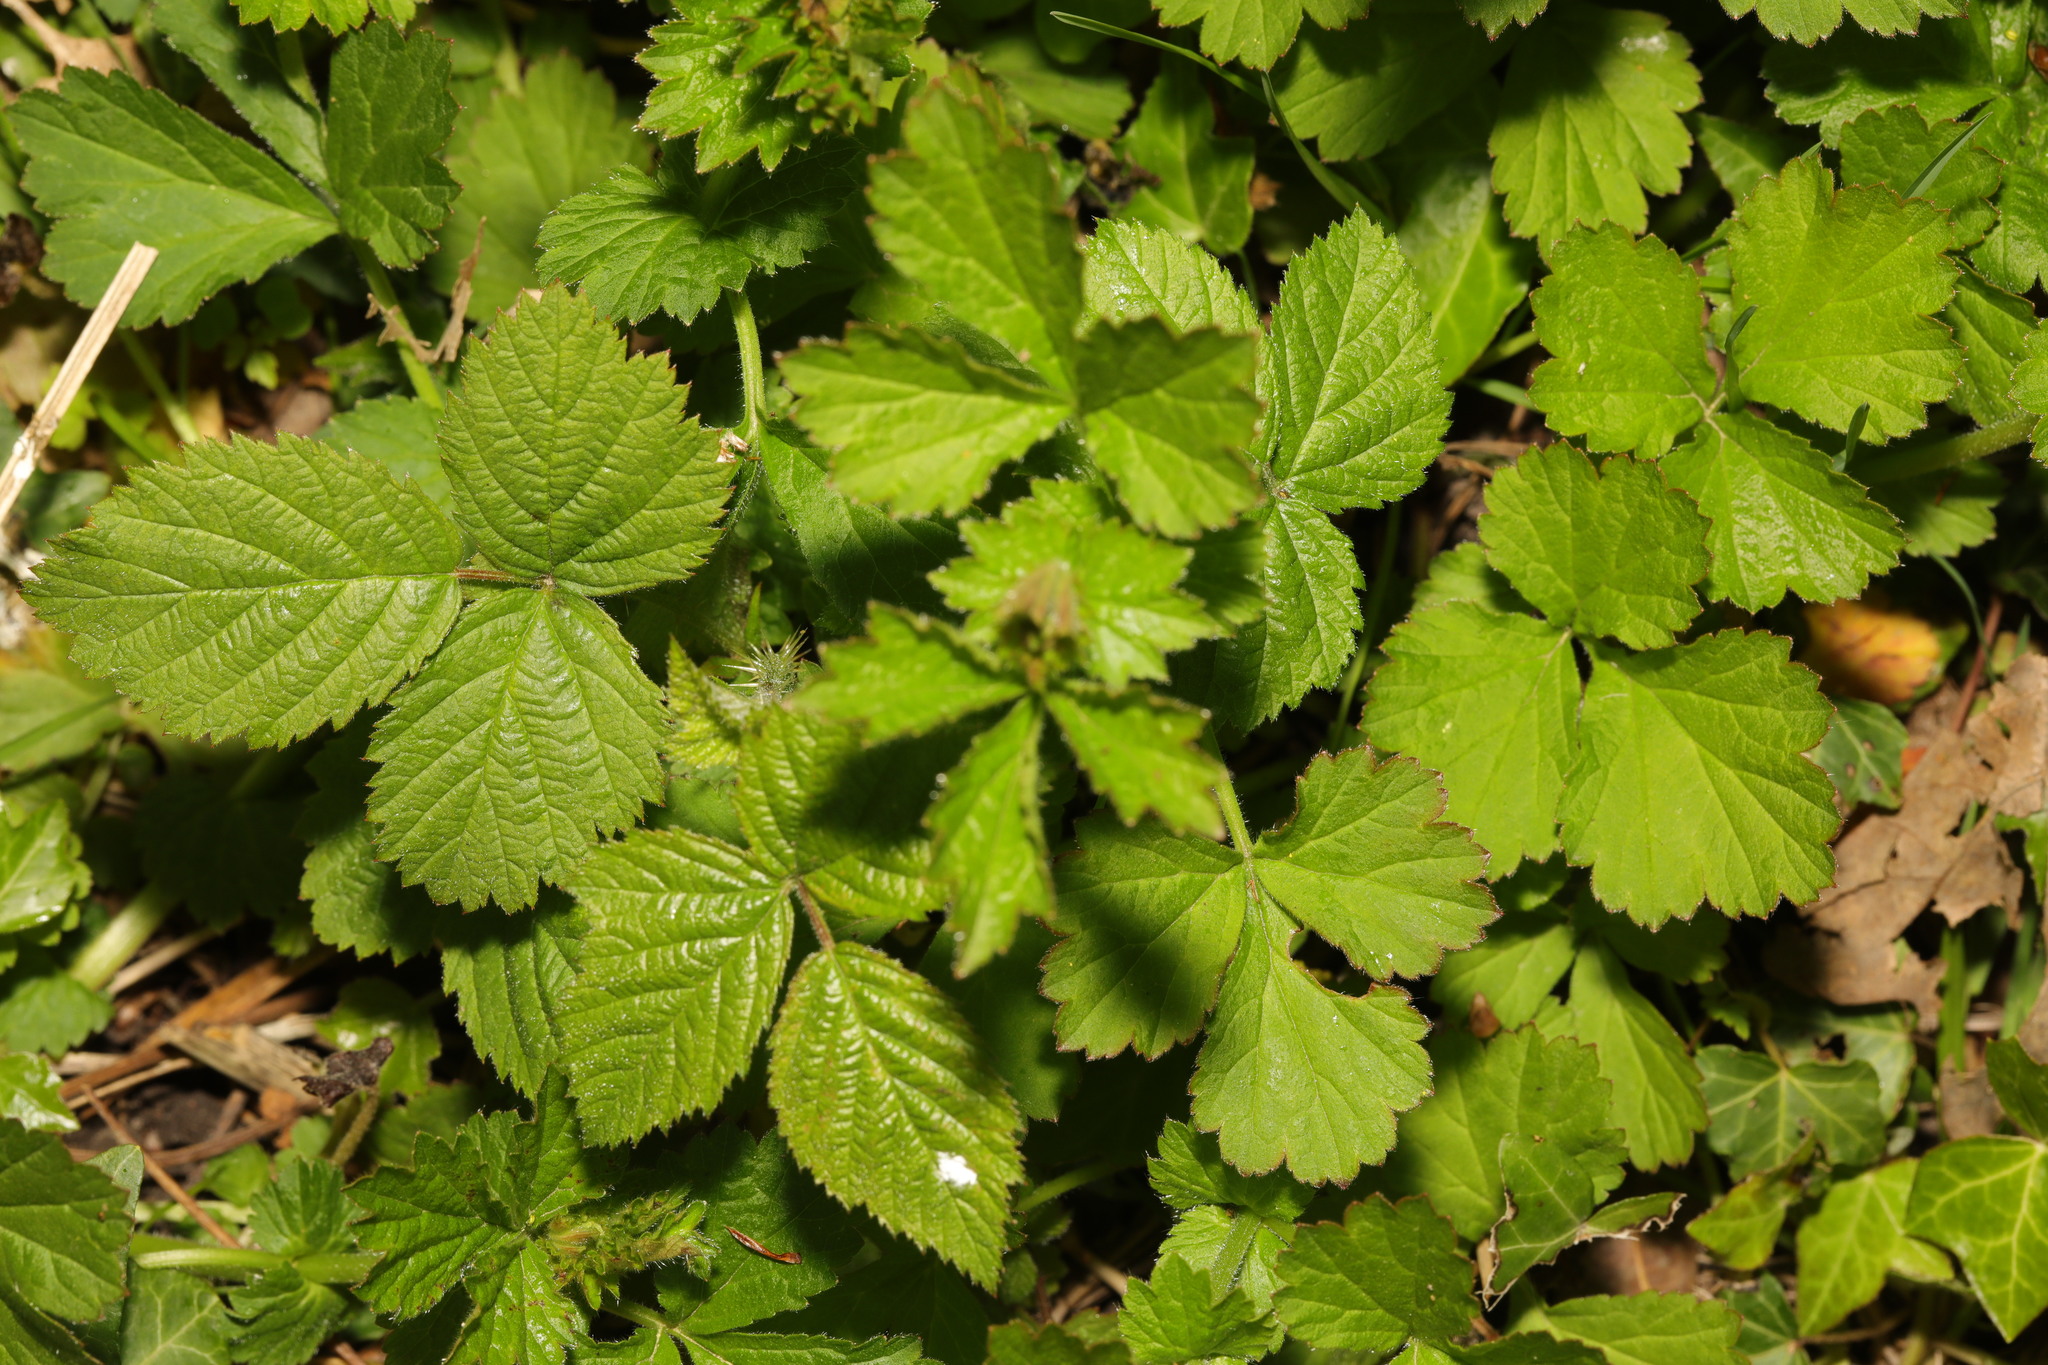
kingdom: Plantae
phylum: Tracheophyta
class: Magnoliopsida
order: Rosales
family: Rosaceae
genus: Geum
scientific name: Geum urbanum
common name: Wood avens
